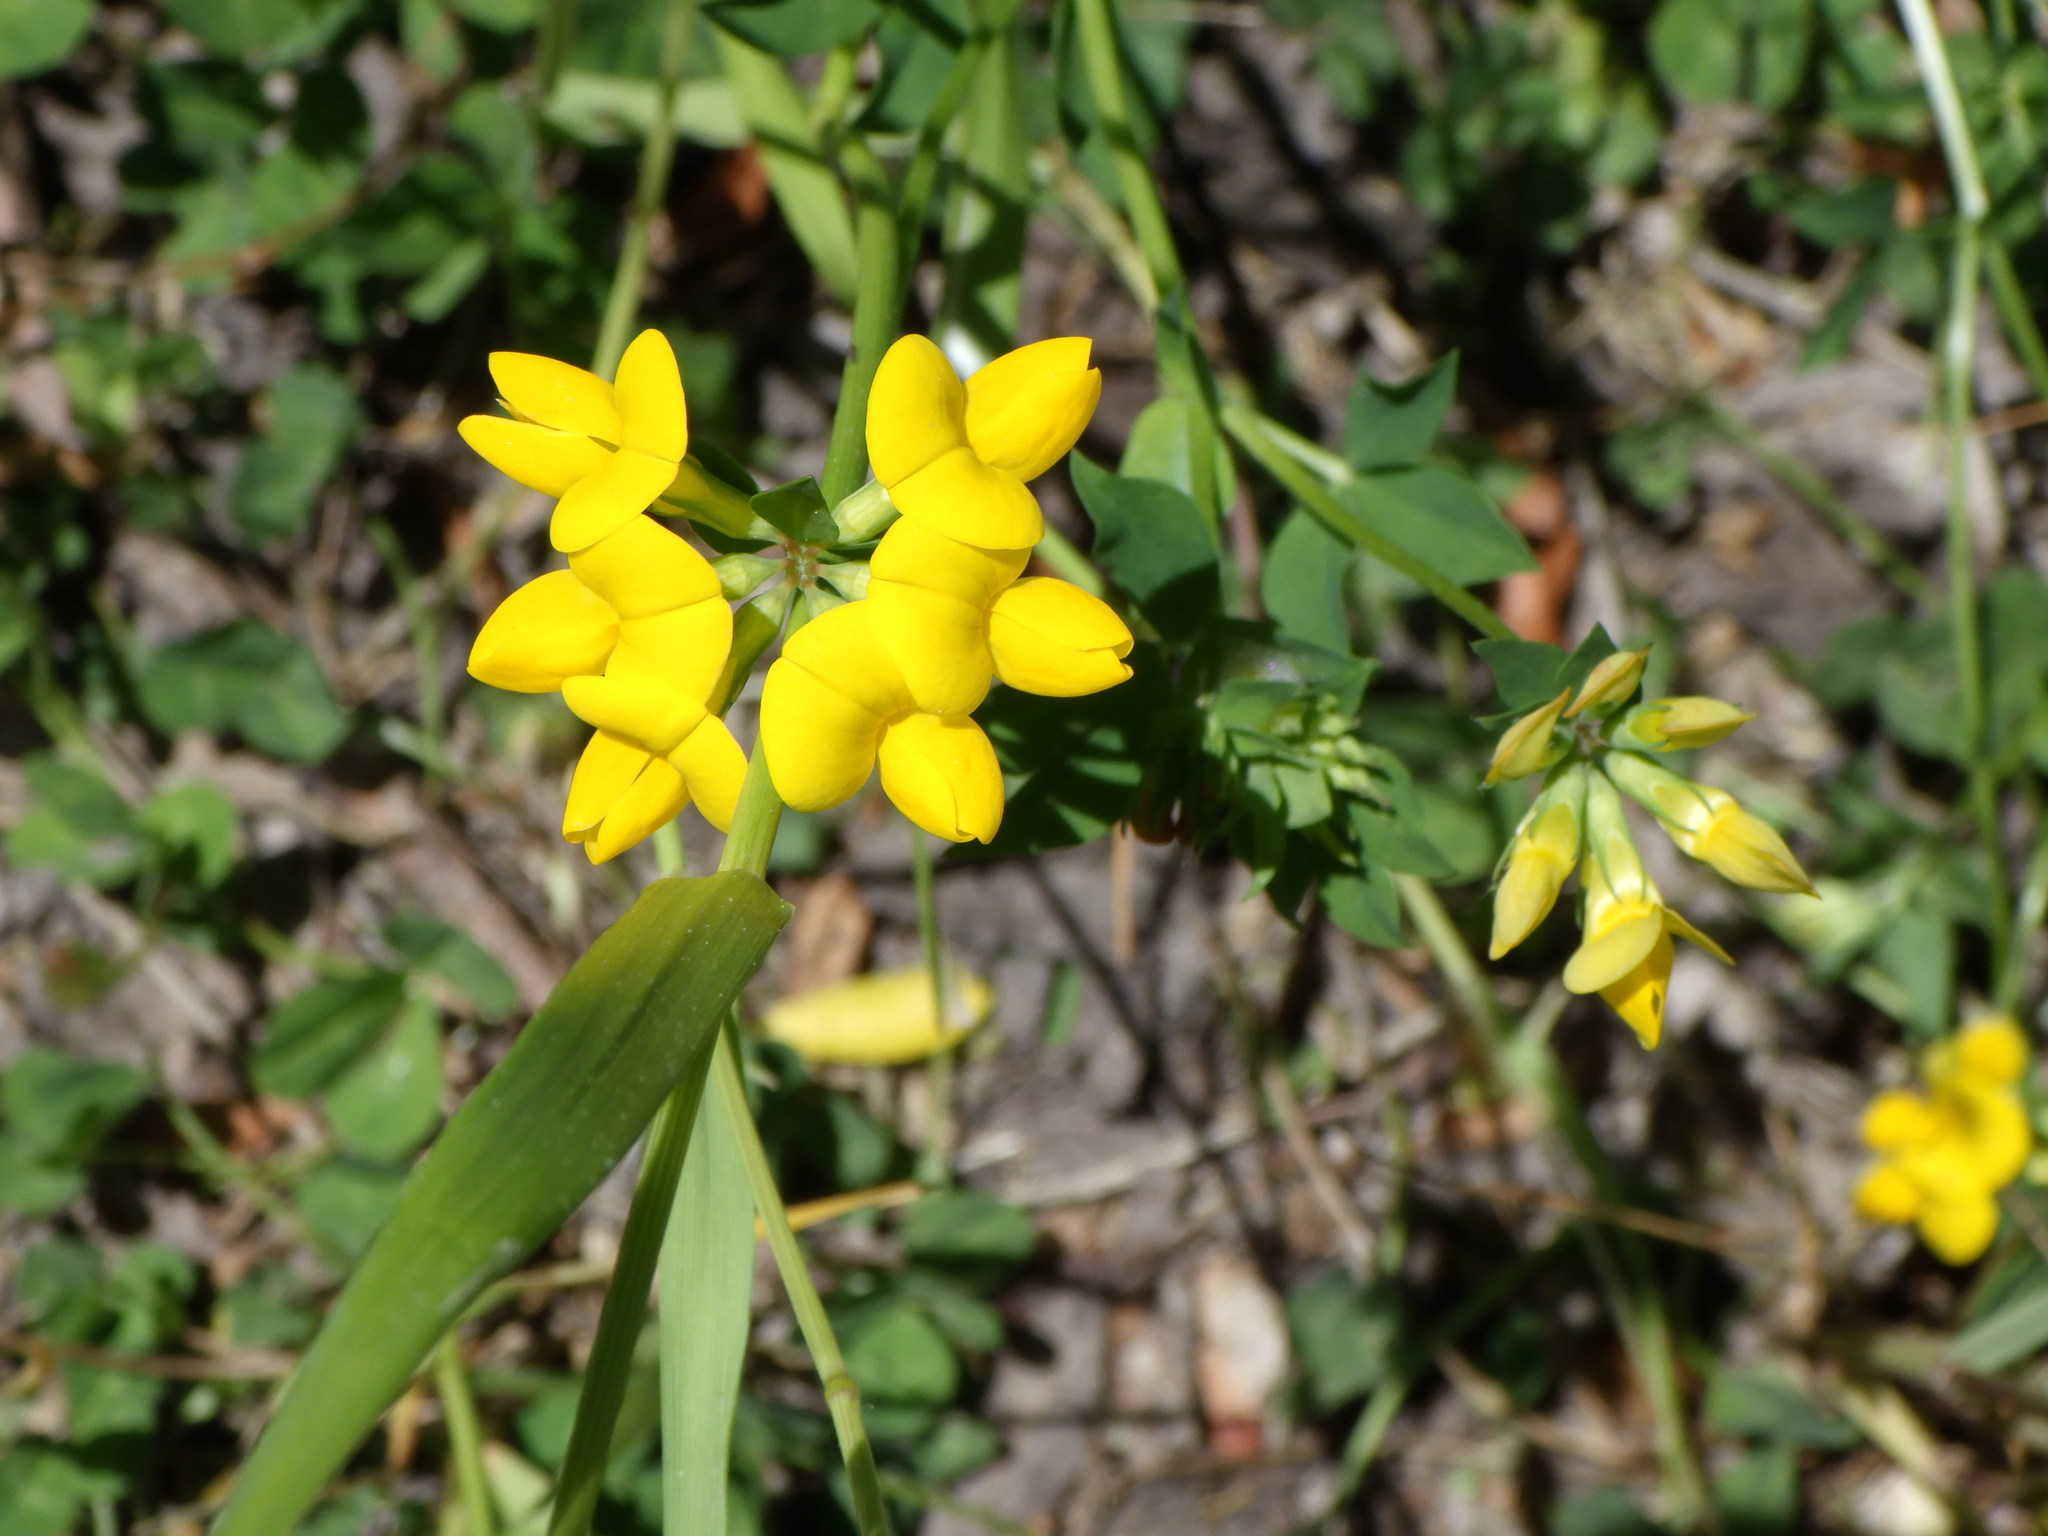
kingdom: Plantae
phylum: Tracheophyta
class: Magnoliopsida
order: Fabales
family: Fabaceae
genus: Lotus
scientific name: Lotus corniculatus
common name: Common bird's-foot-trefoil
